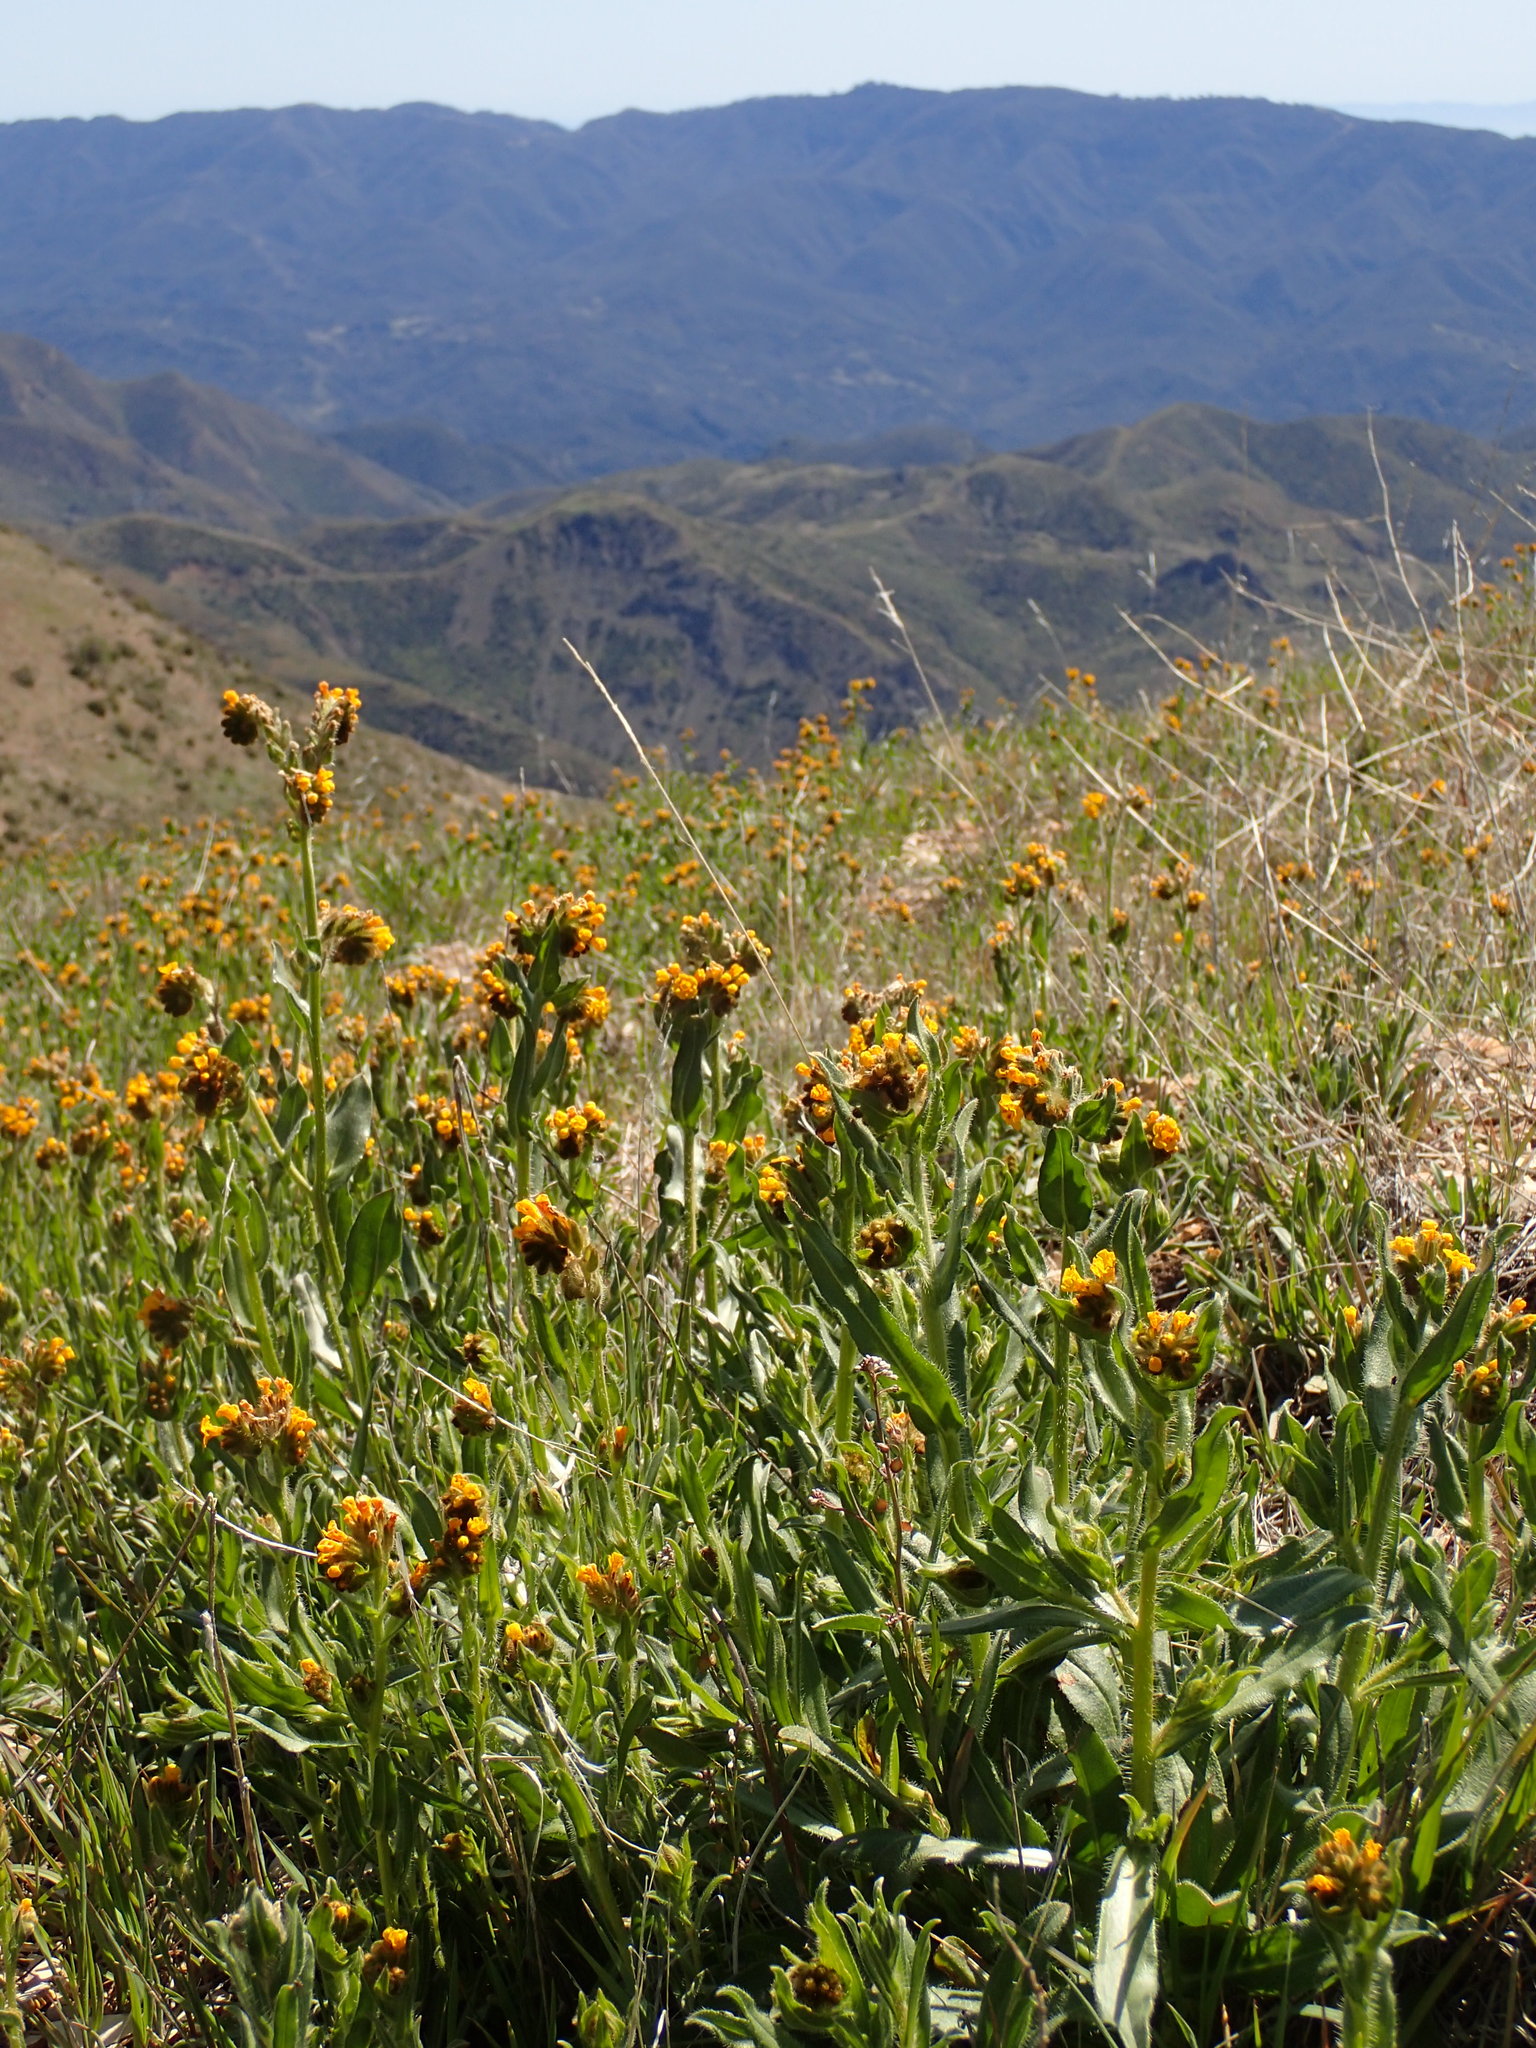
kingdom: Plantae
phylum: Tracheophyta
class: Magnoliopsida
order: Boraginales
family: Boraginaceae
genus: Amsinckia
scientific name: Amsinckia douglasiana
